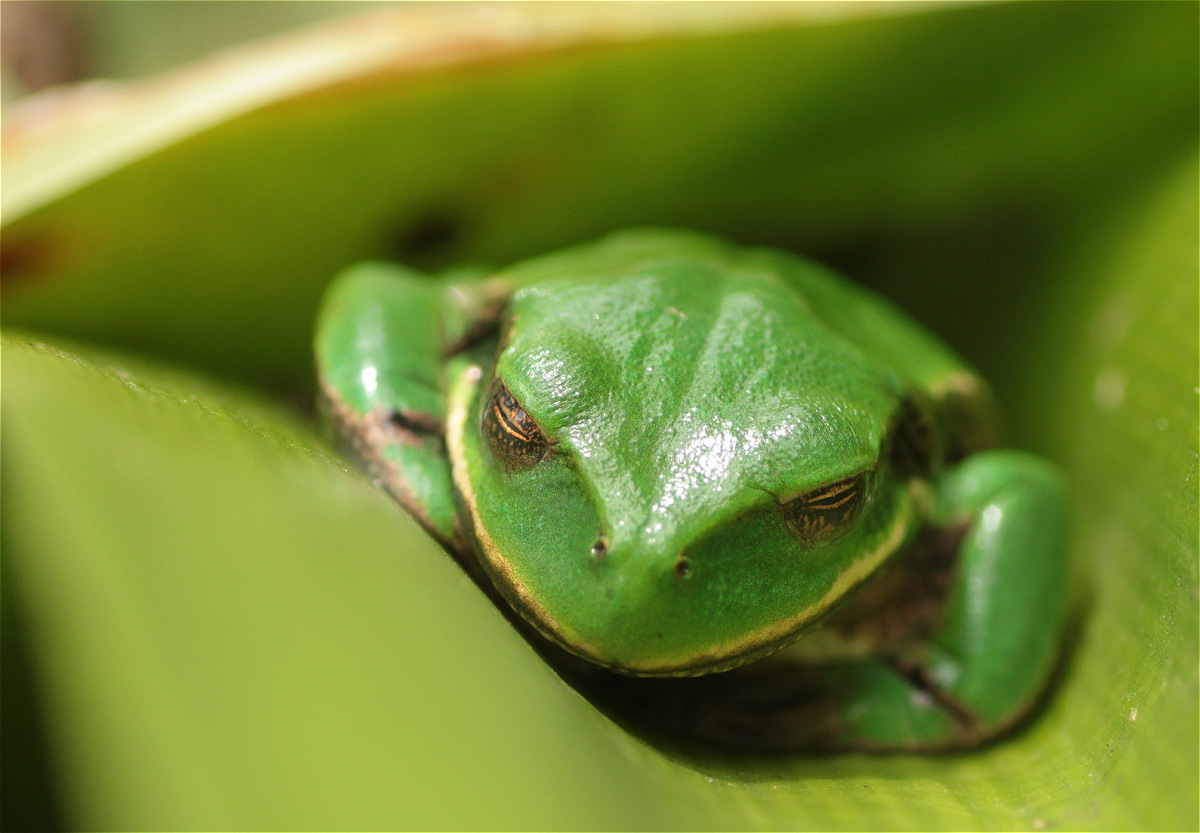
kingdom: Animalia
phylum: Chordata
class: Amphibia
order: Anura
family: Hemiphractidae
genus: Gastrotheca
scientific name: Gastrotheca cuencana
